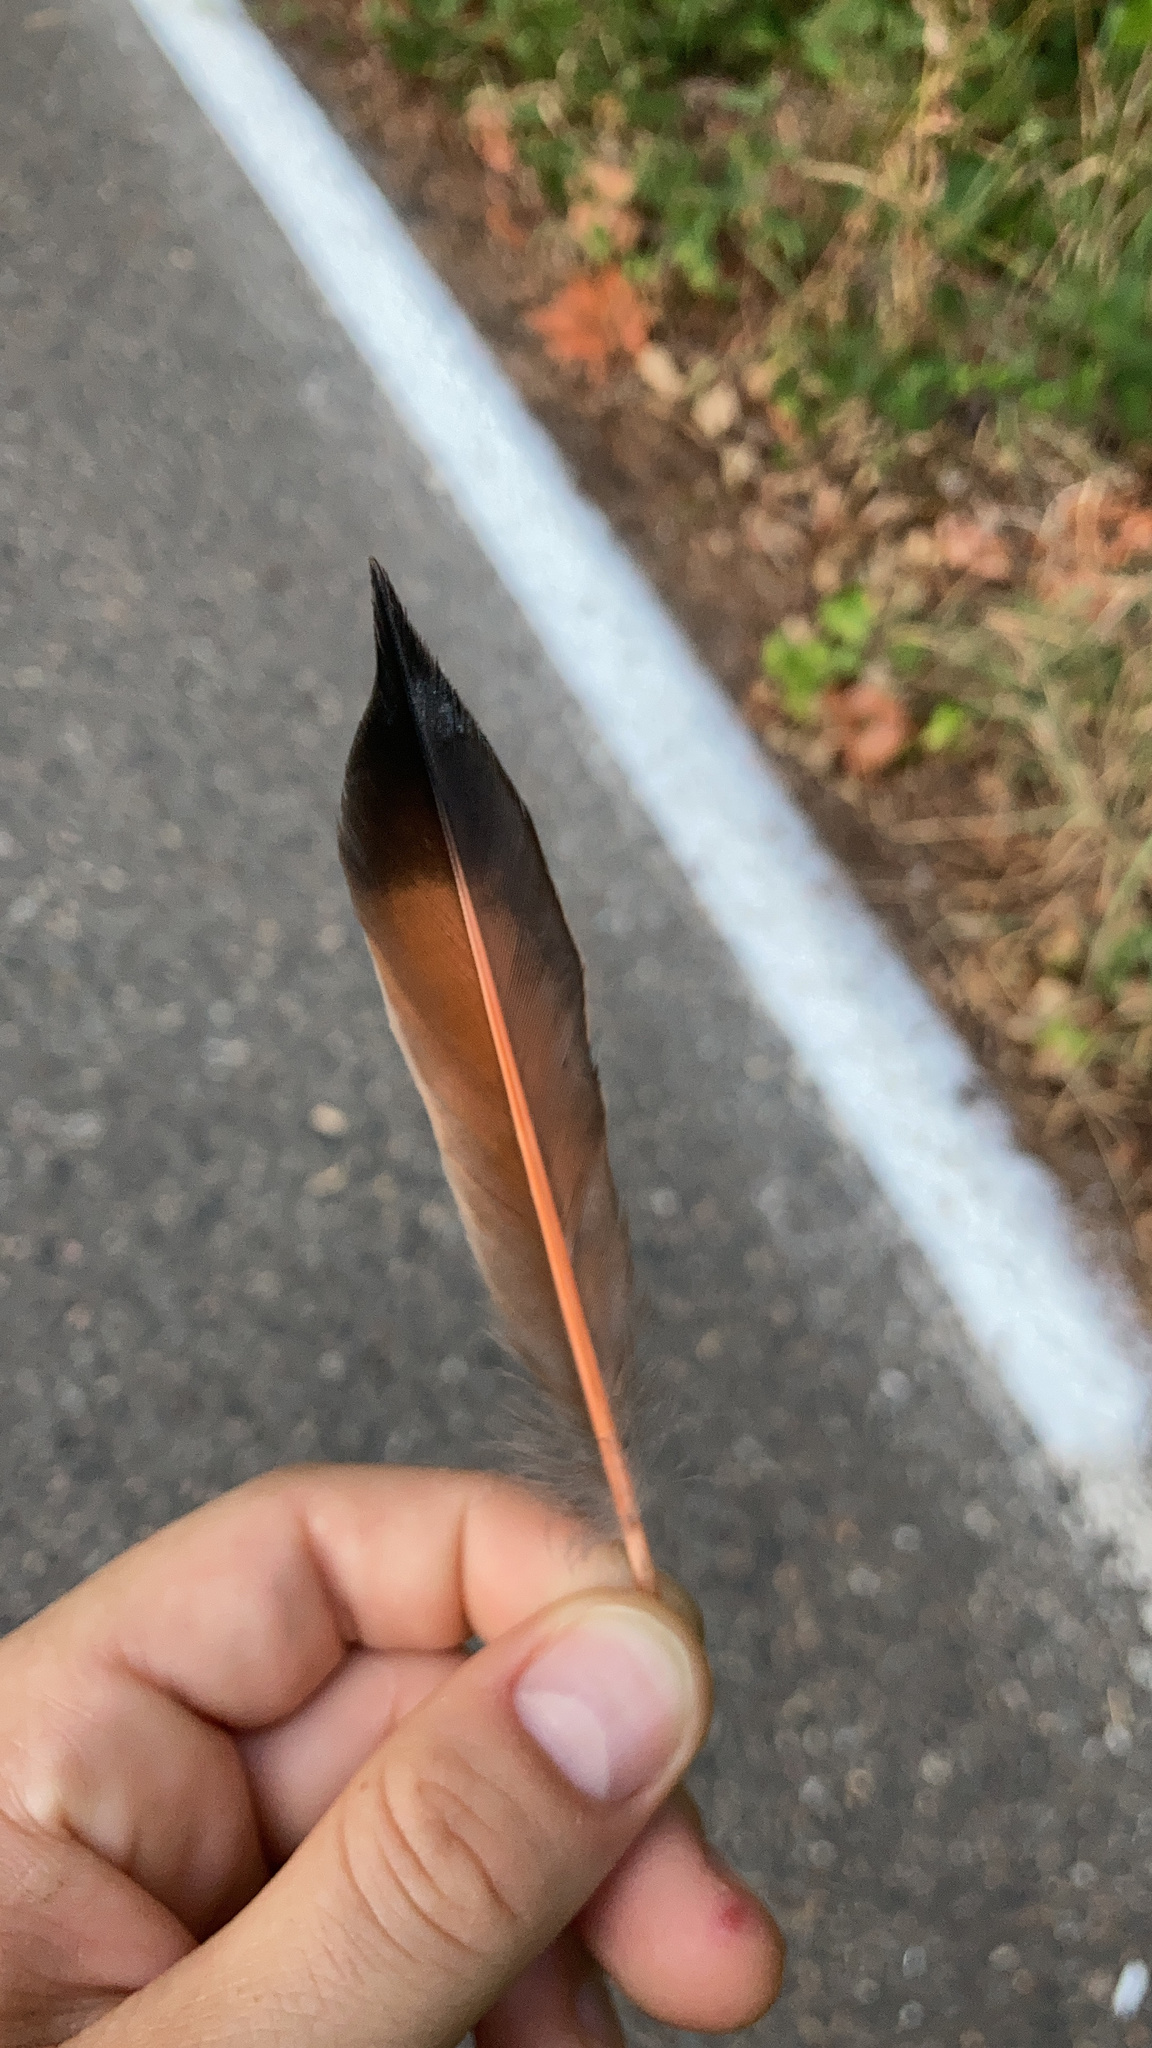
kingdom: Animalia
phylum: Chordata
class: Aves
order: Piciformes
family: Picidae
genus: Colaptes
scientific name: Colaptes auratus
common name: Northern flicker
